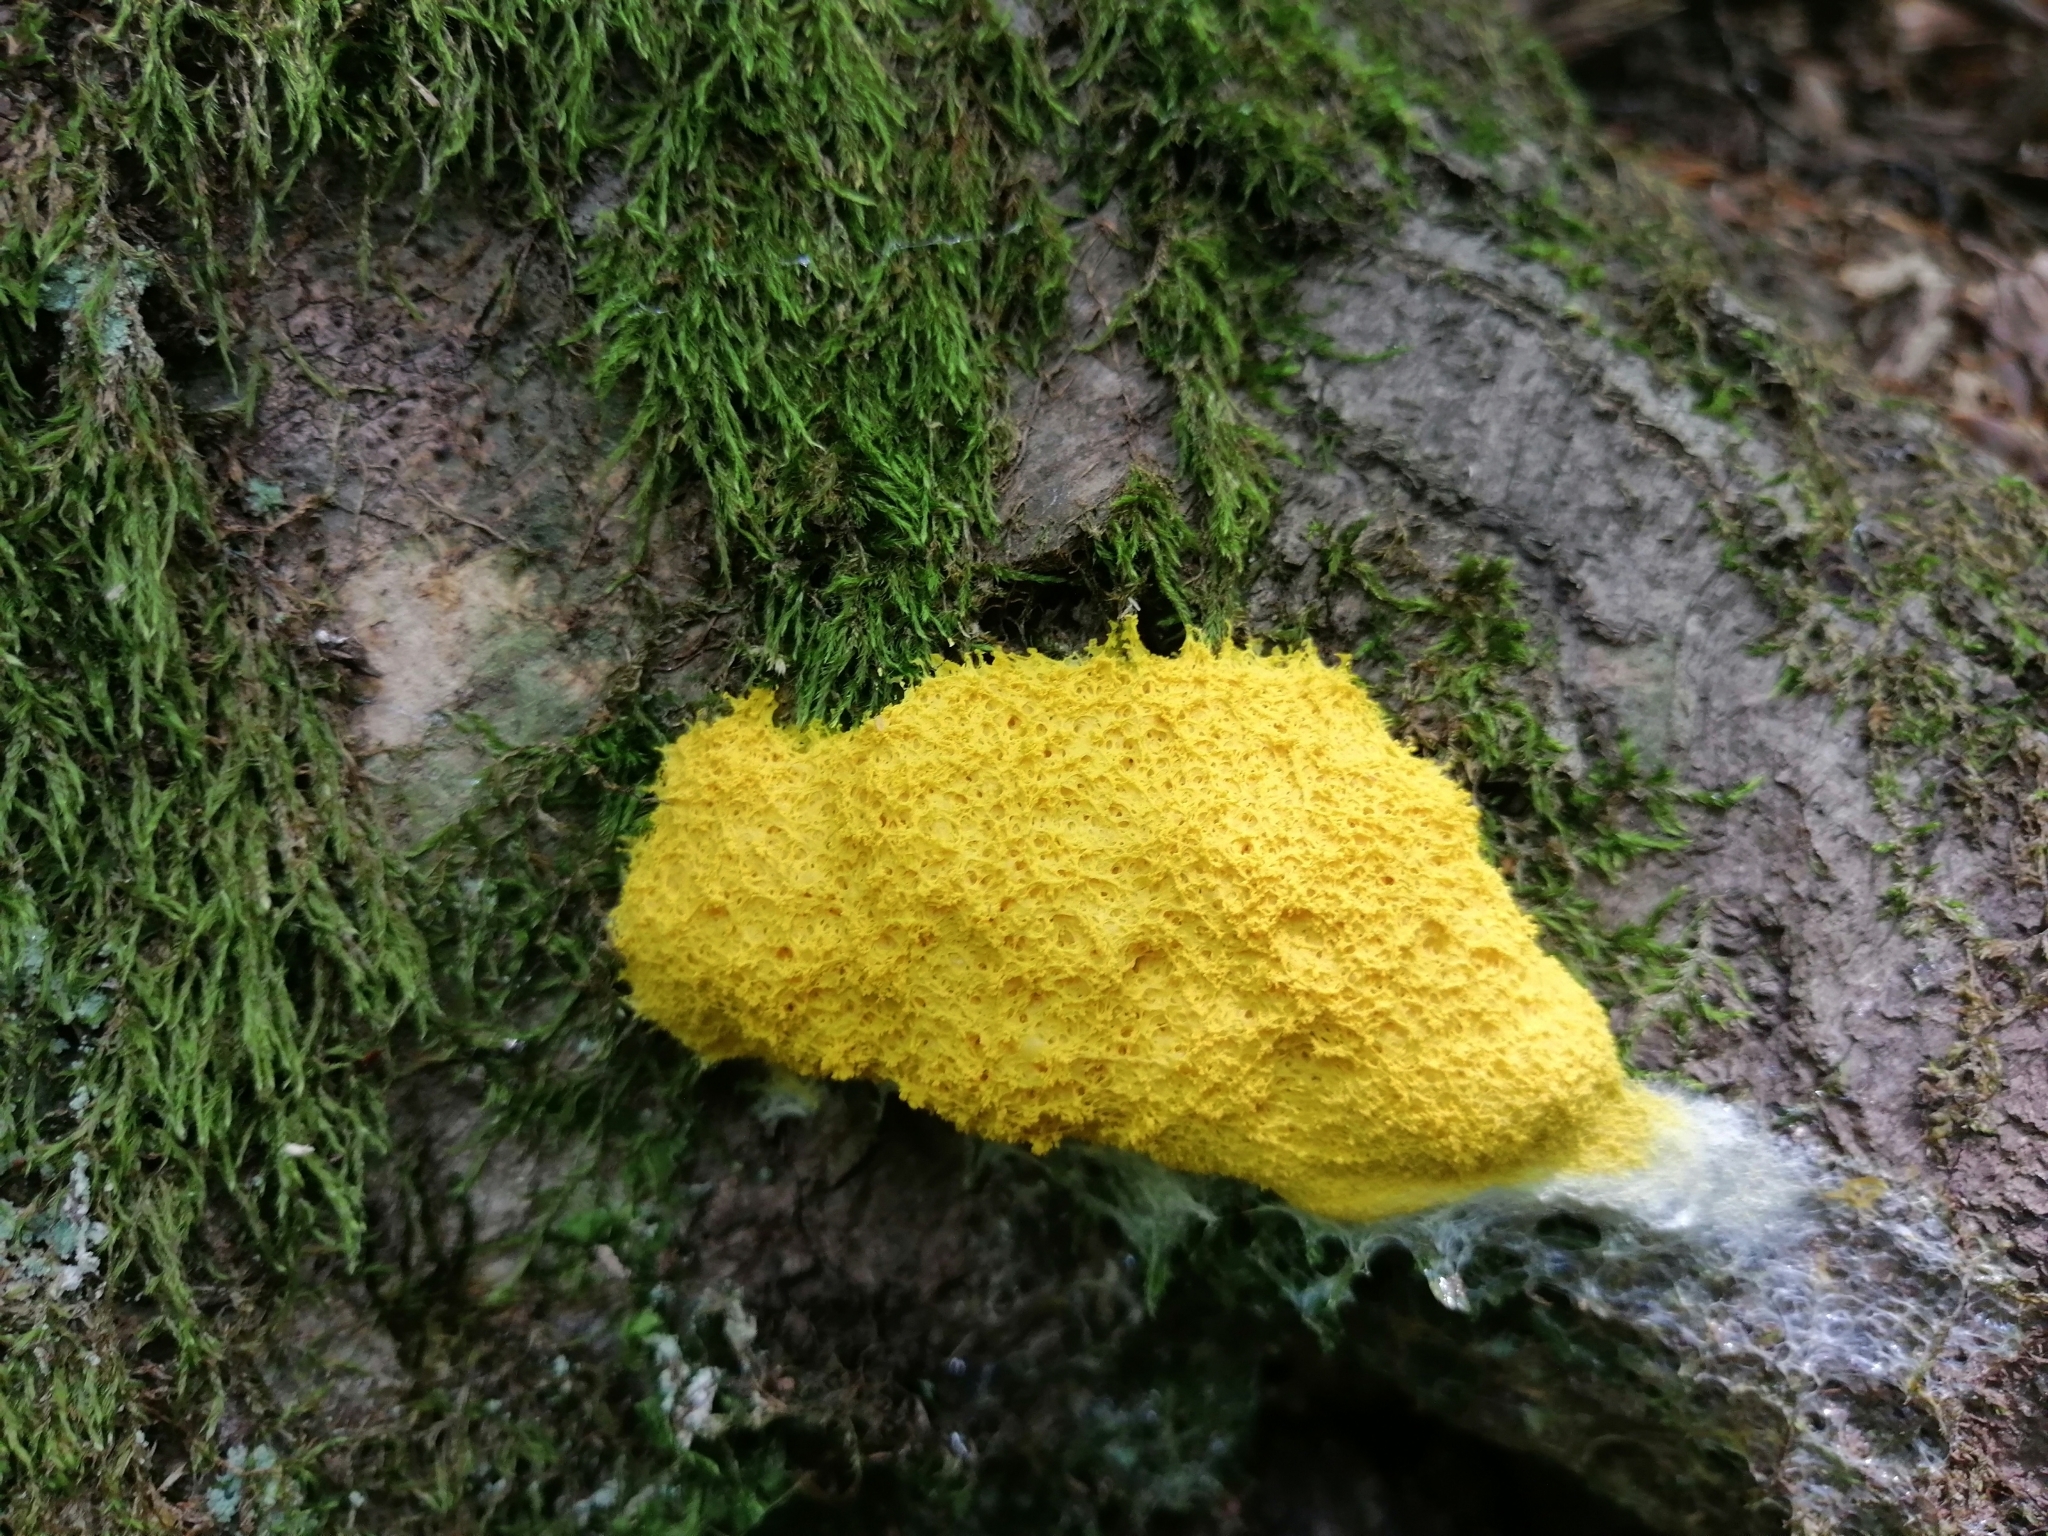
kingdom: Protozoa
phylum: Mycetozoa
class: Myxomycetes
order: Physarales
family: Physaraceae
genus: Fuligo
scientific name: Fuligo septica
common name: Dog vomit slime mold
